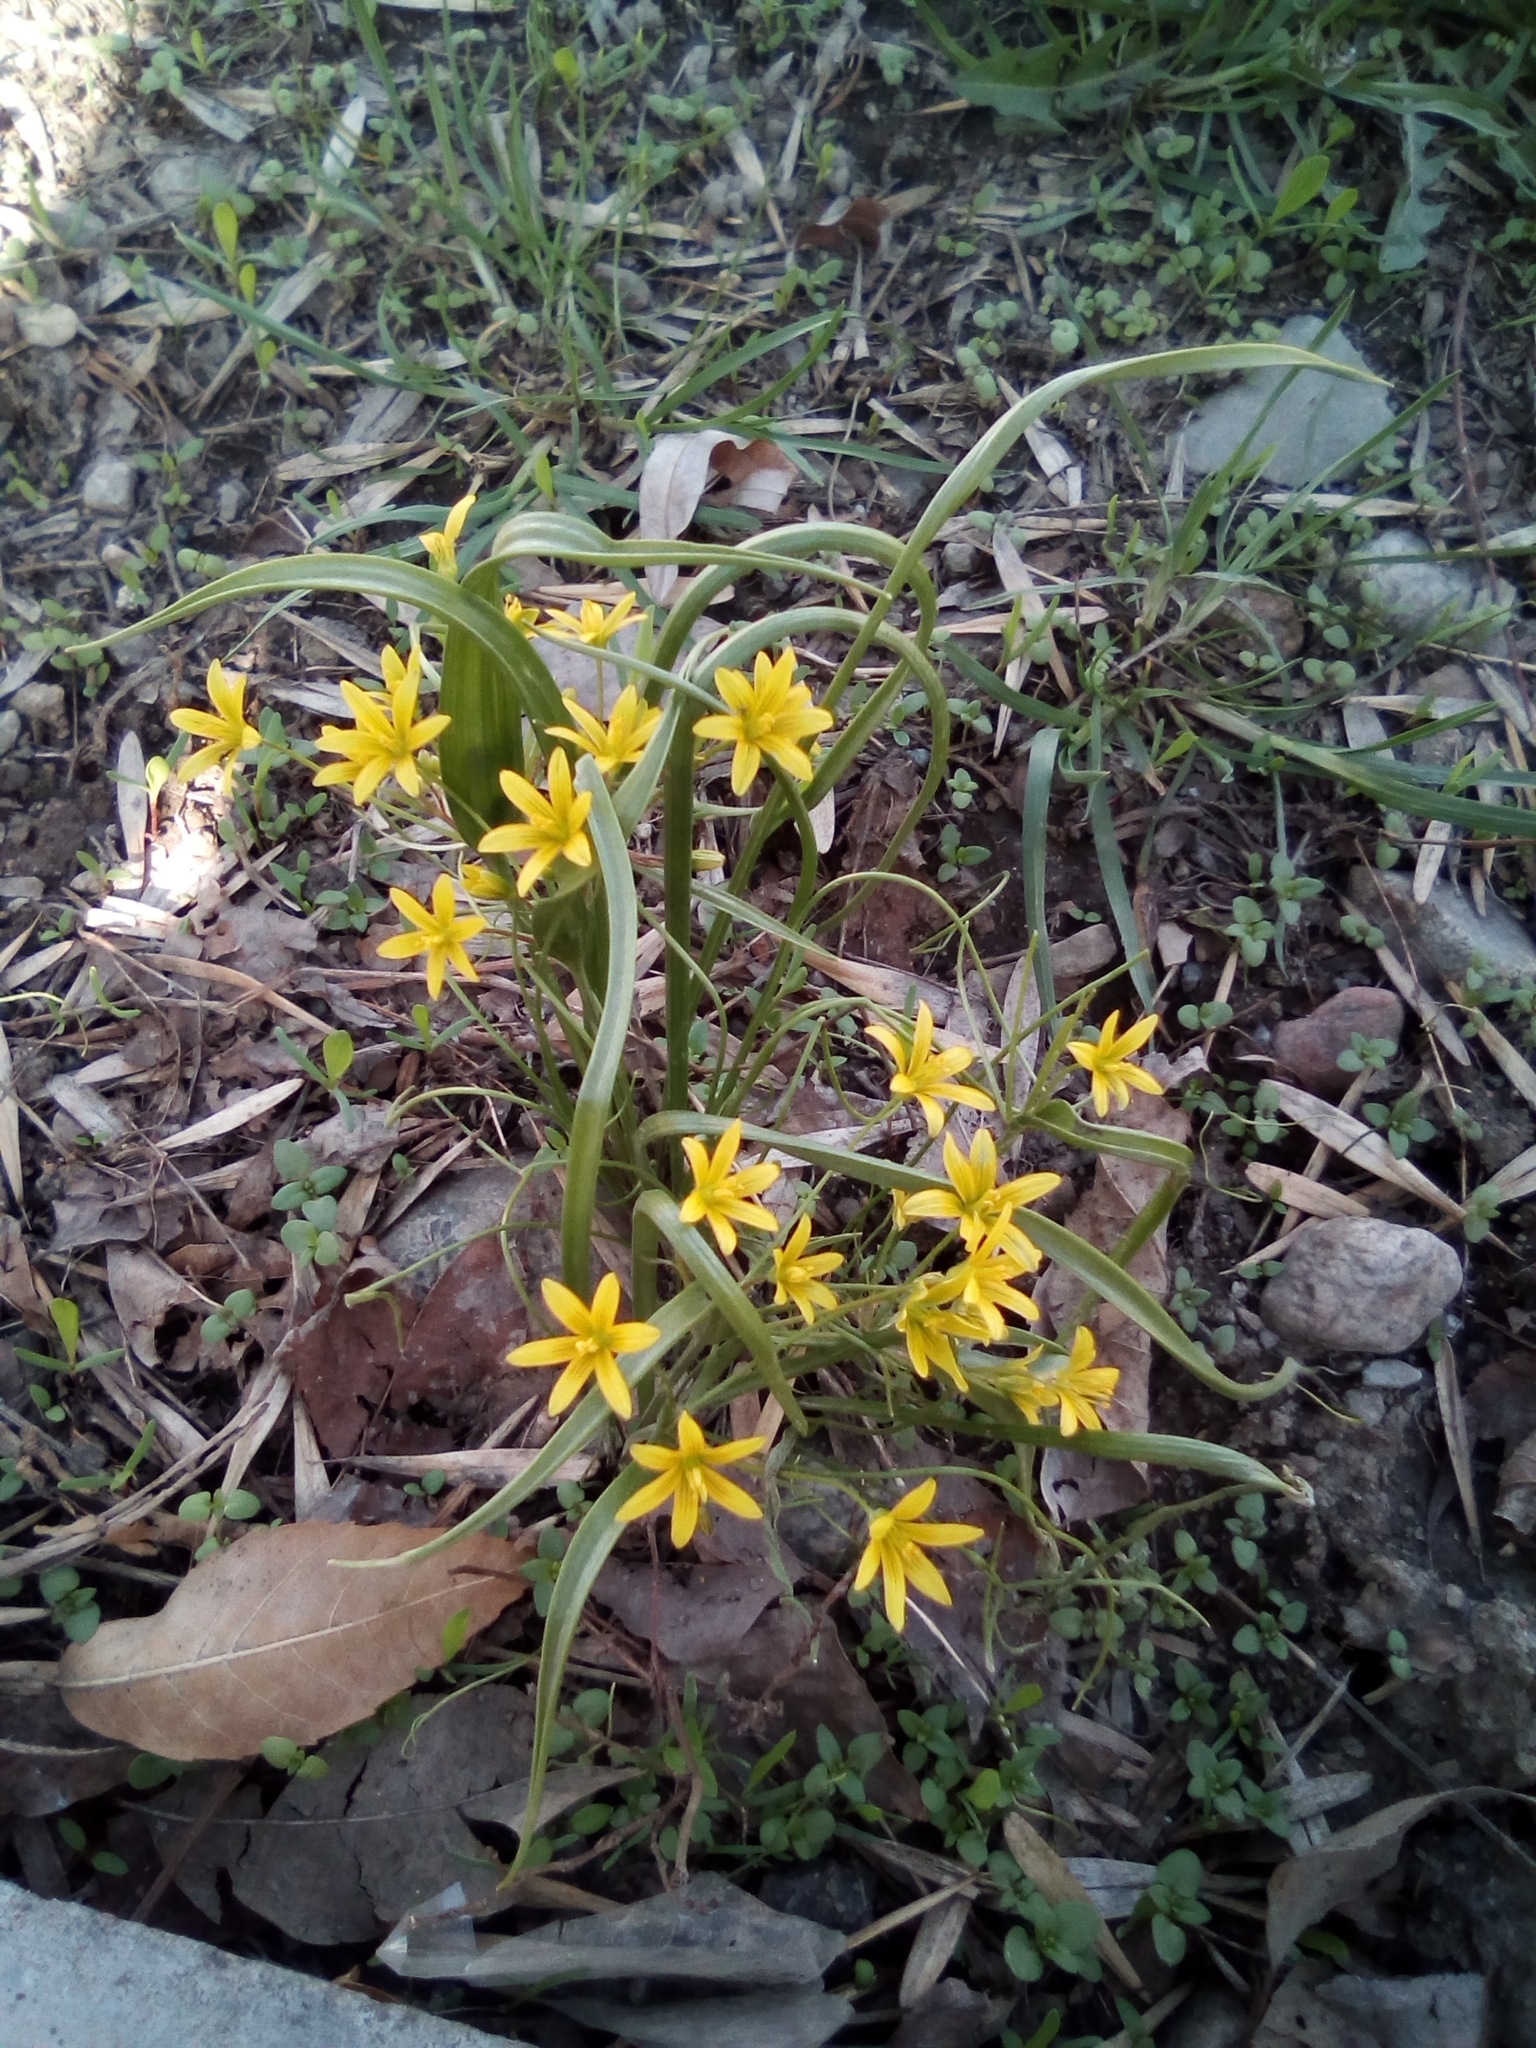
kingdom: Plantae
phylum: Tracheophyta
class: Liliopsida
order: Liliales
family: Liliaceae
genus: Gagea
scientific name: Gagea filiformis
